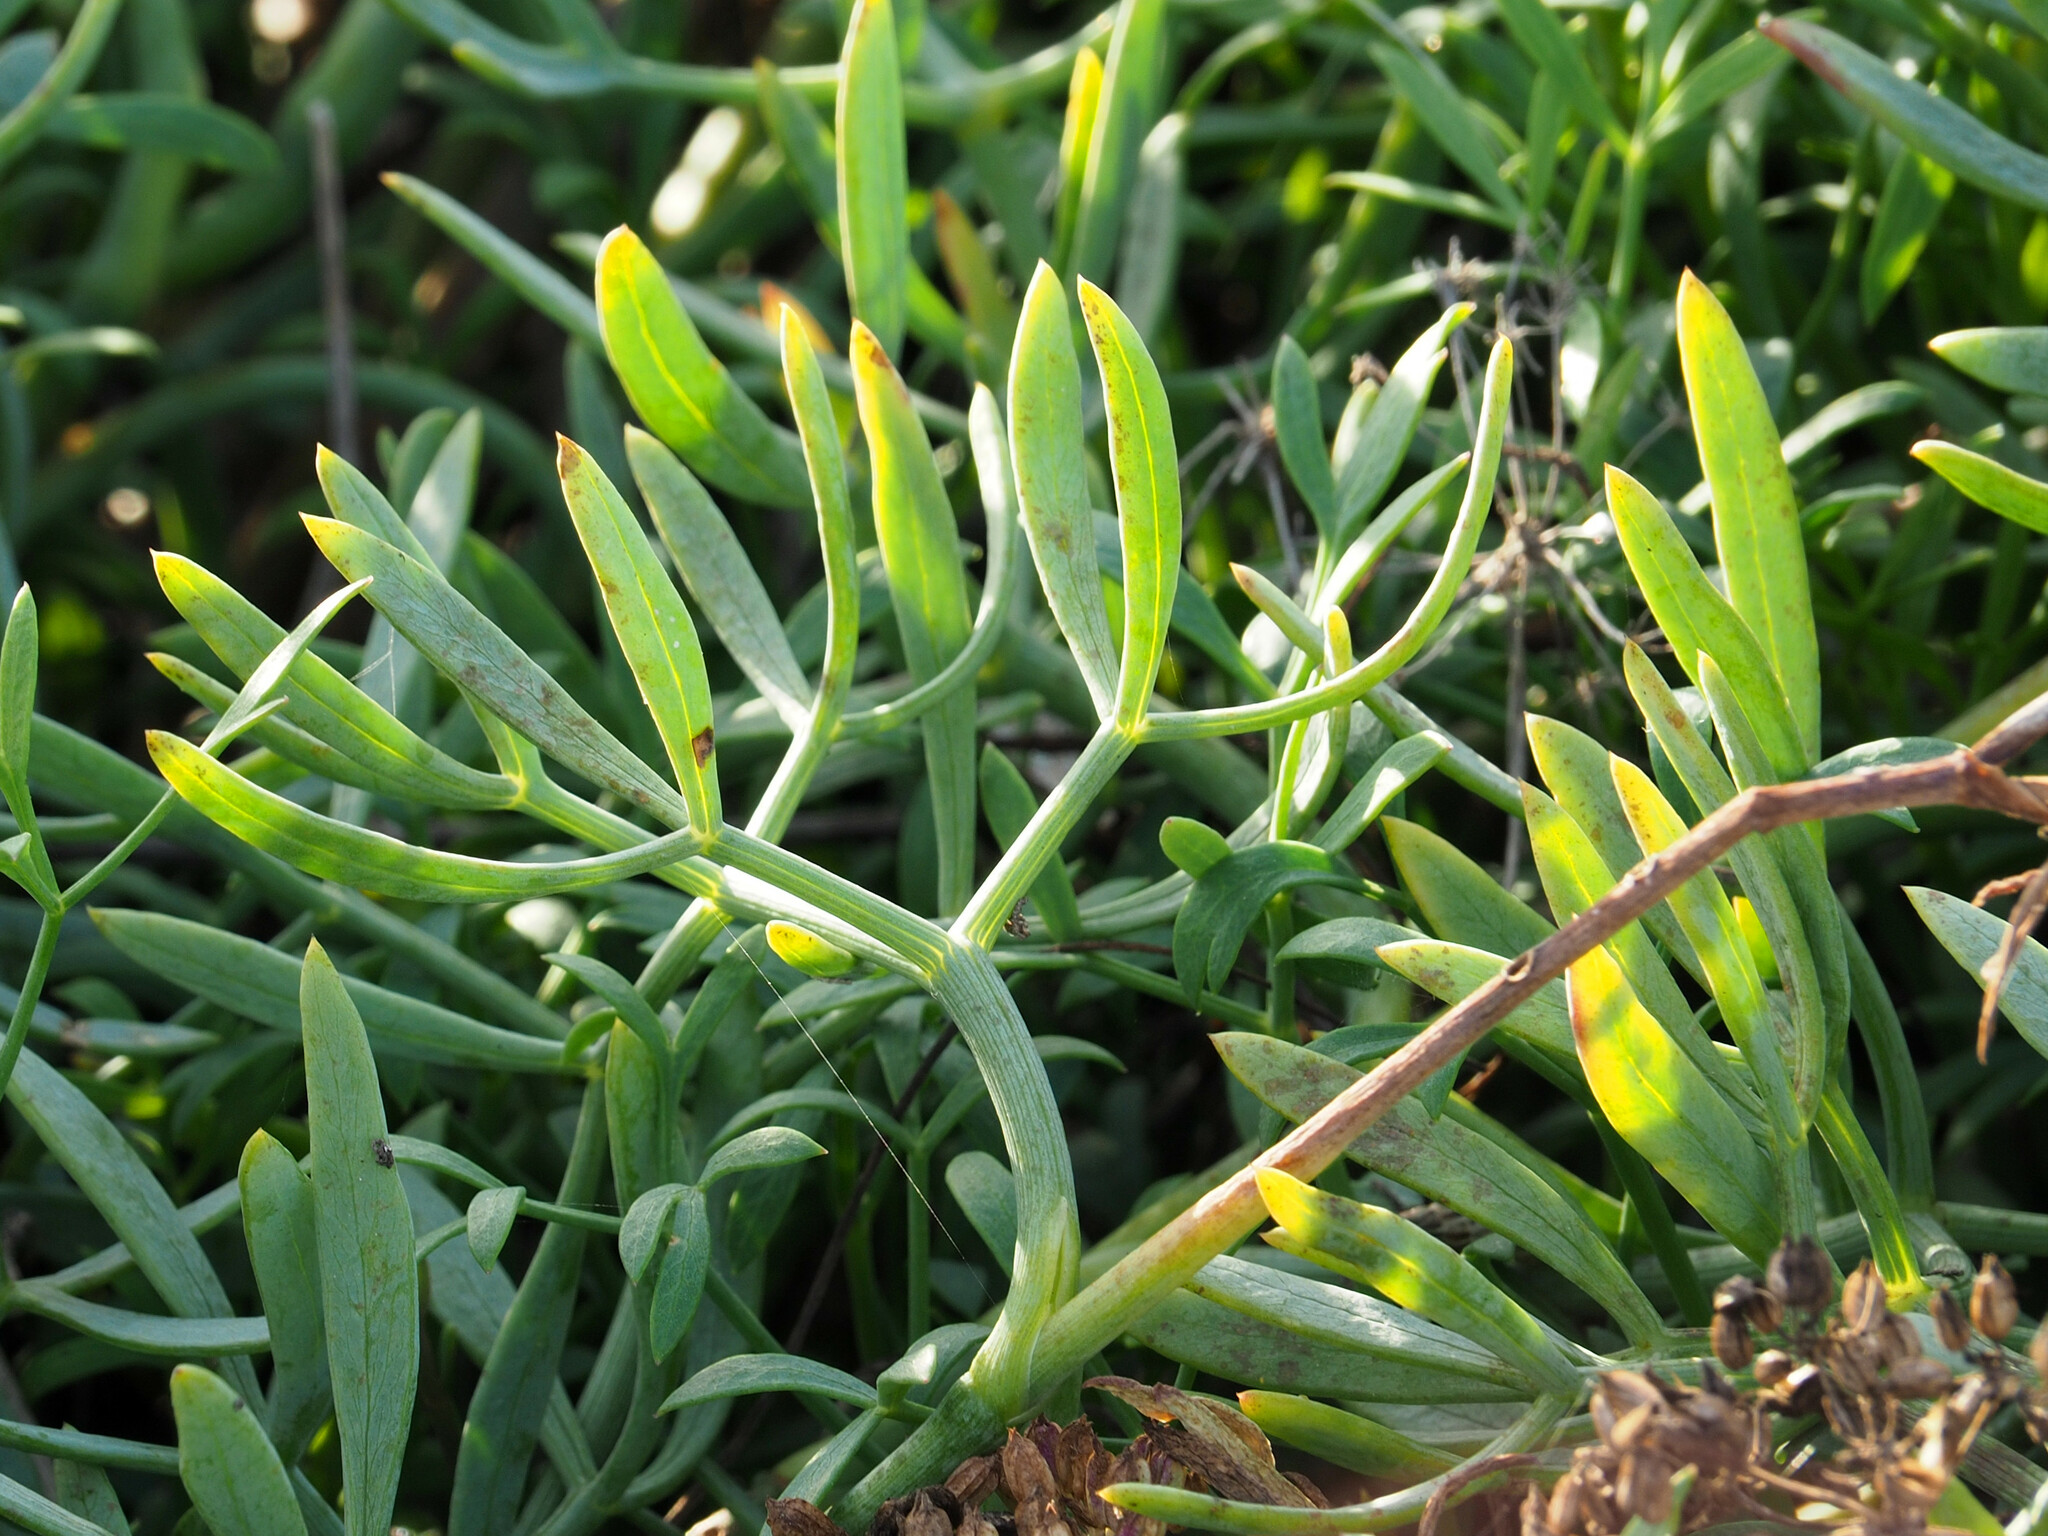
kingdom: Plantae
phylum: Tracheophyta
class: Magnoliopsida
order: Apiales
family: Apiaceae
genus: Crithmum
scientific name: Crithmum maritimum
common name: Rock samphire
